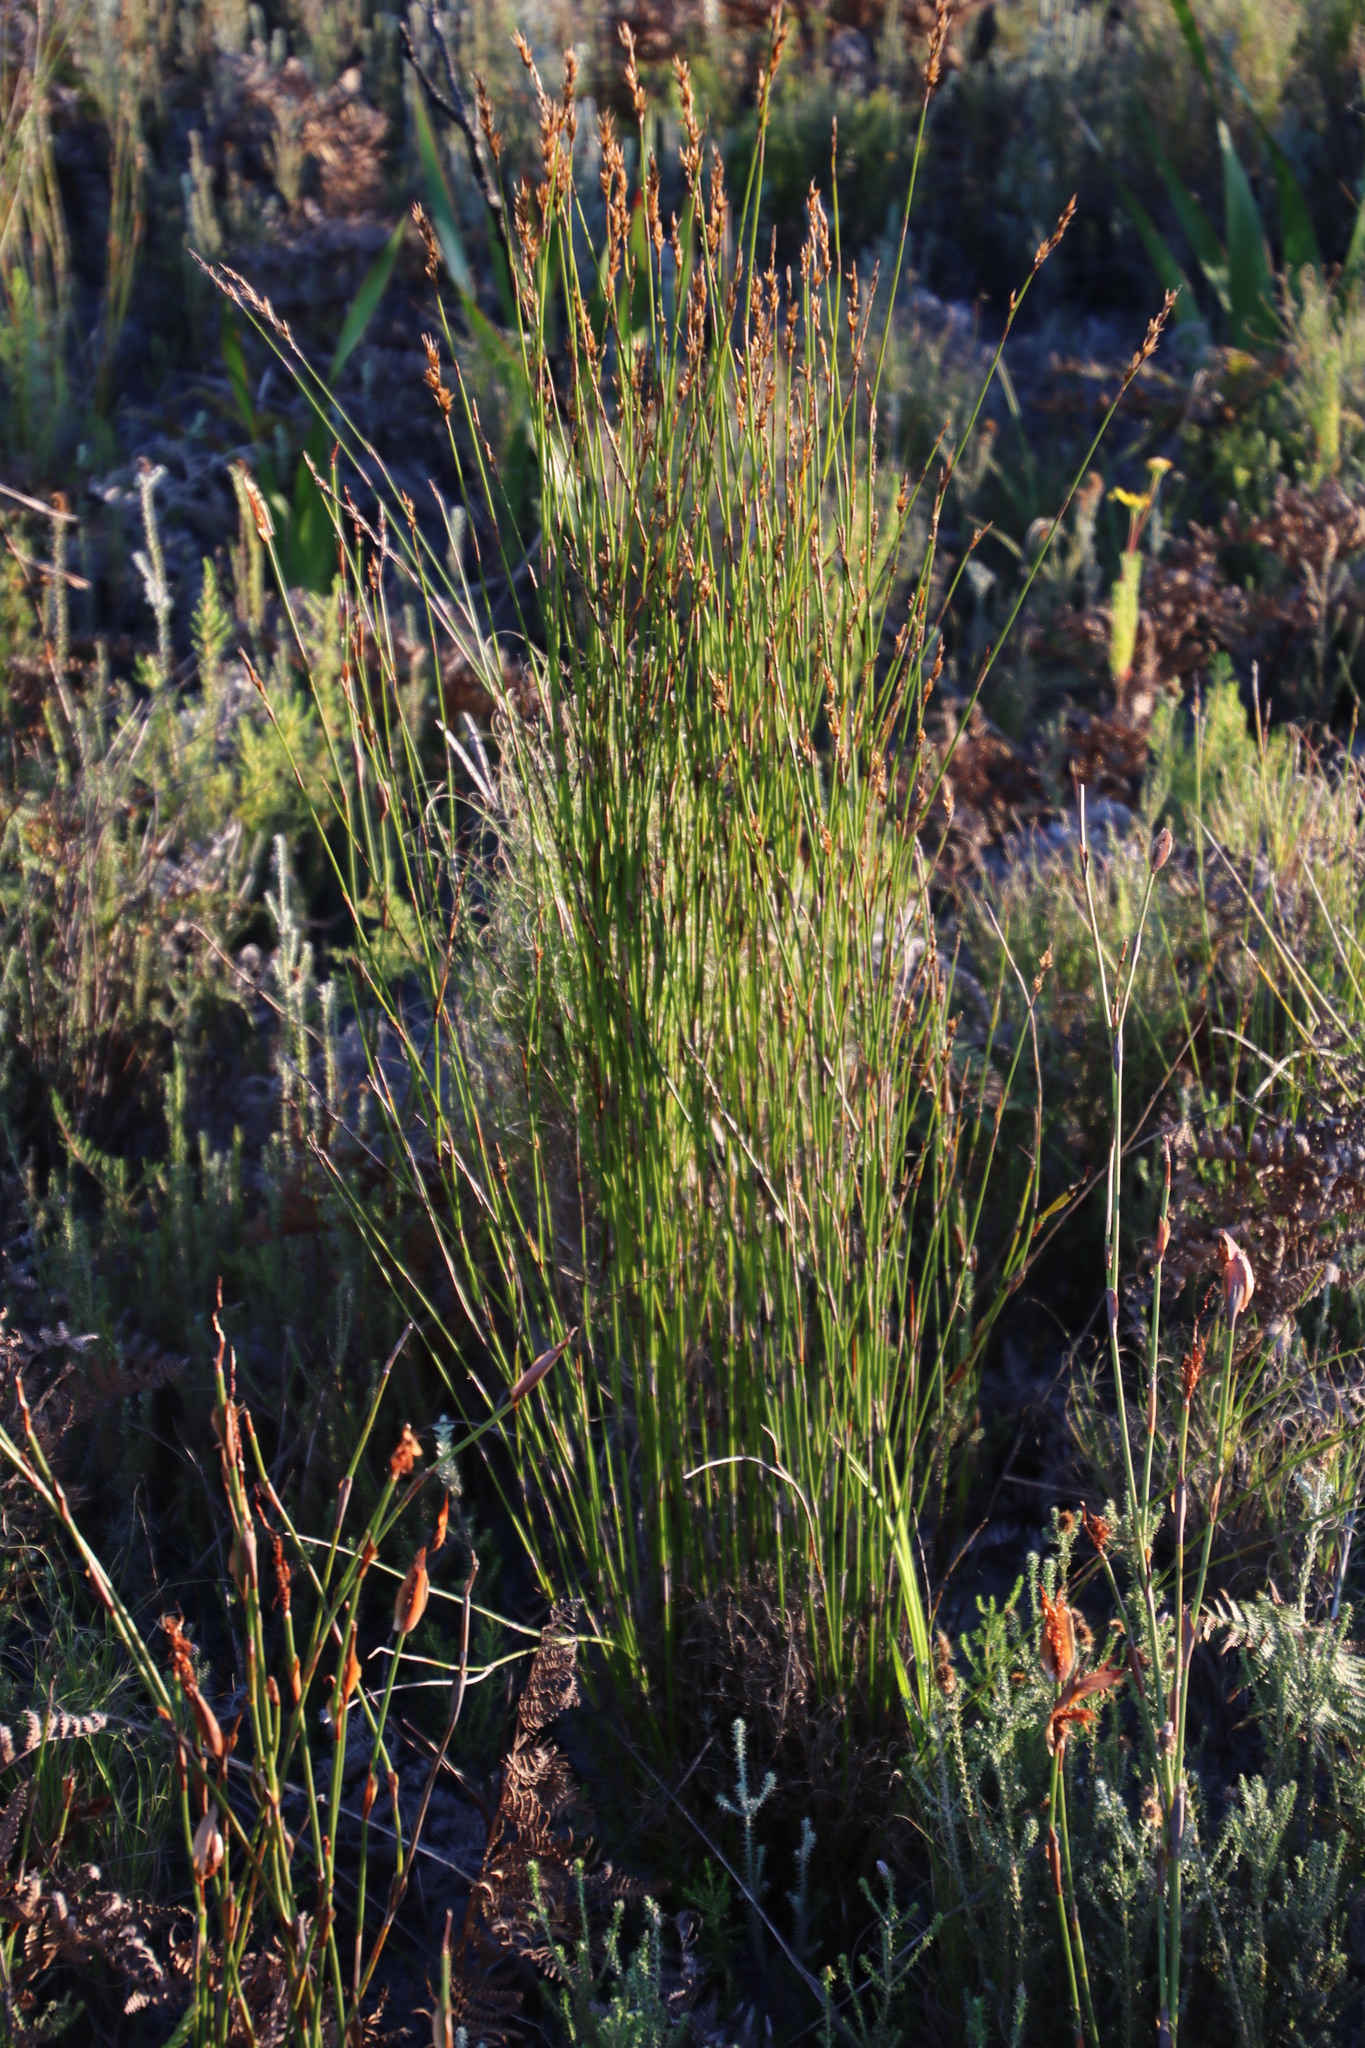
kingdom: Plantae
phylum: Tracheophyta
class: Liliopsida
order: Poales
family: Restionaceae
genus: Thamnochortus
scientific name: Thamnochortus gracilis
